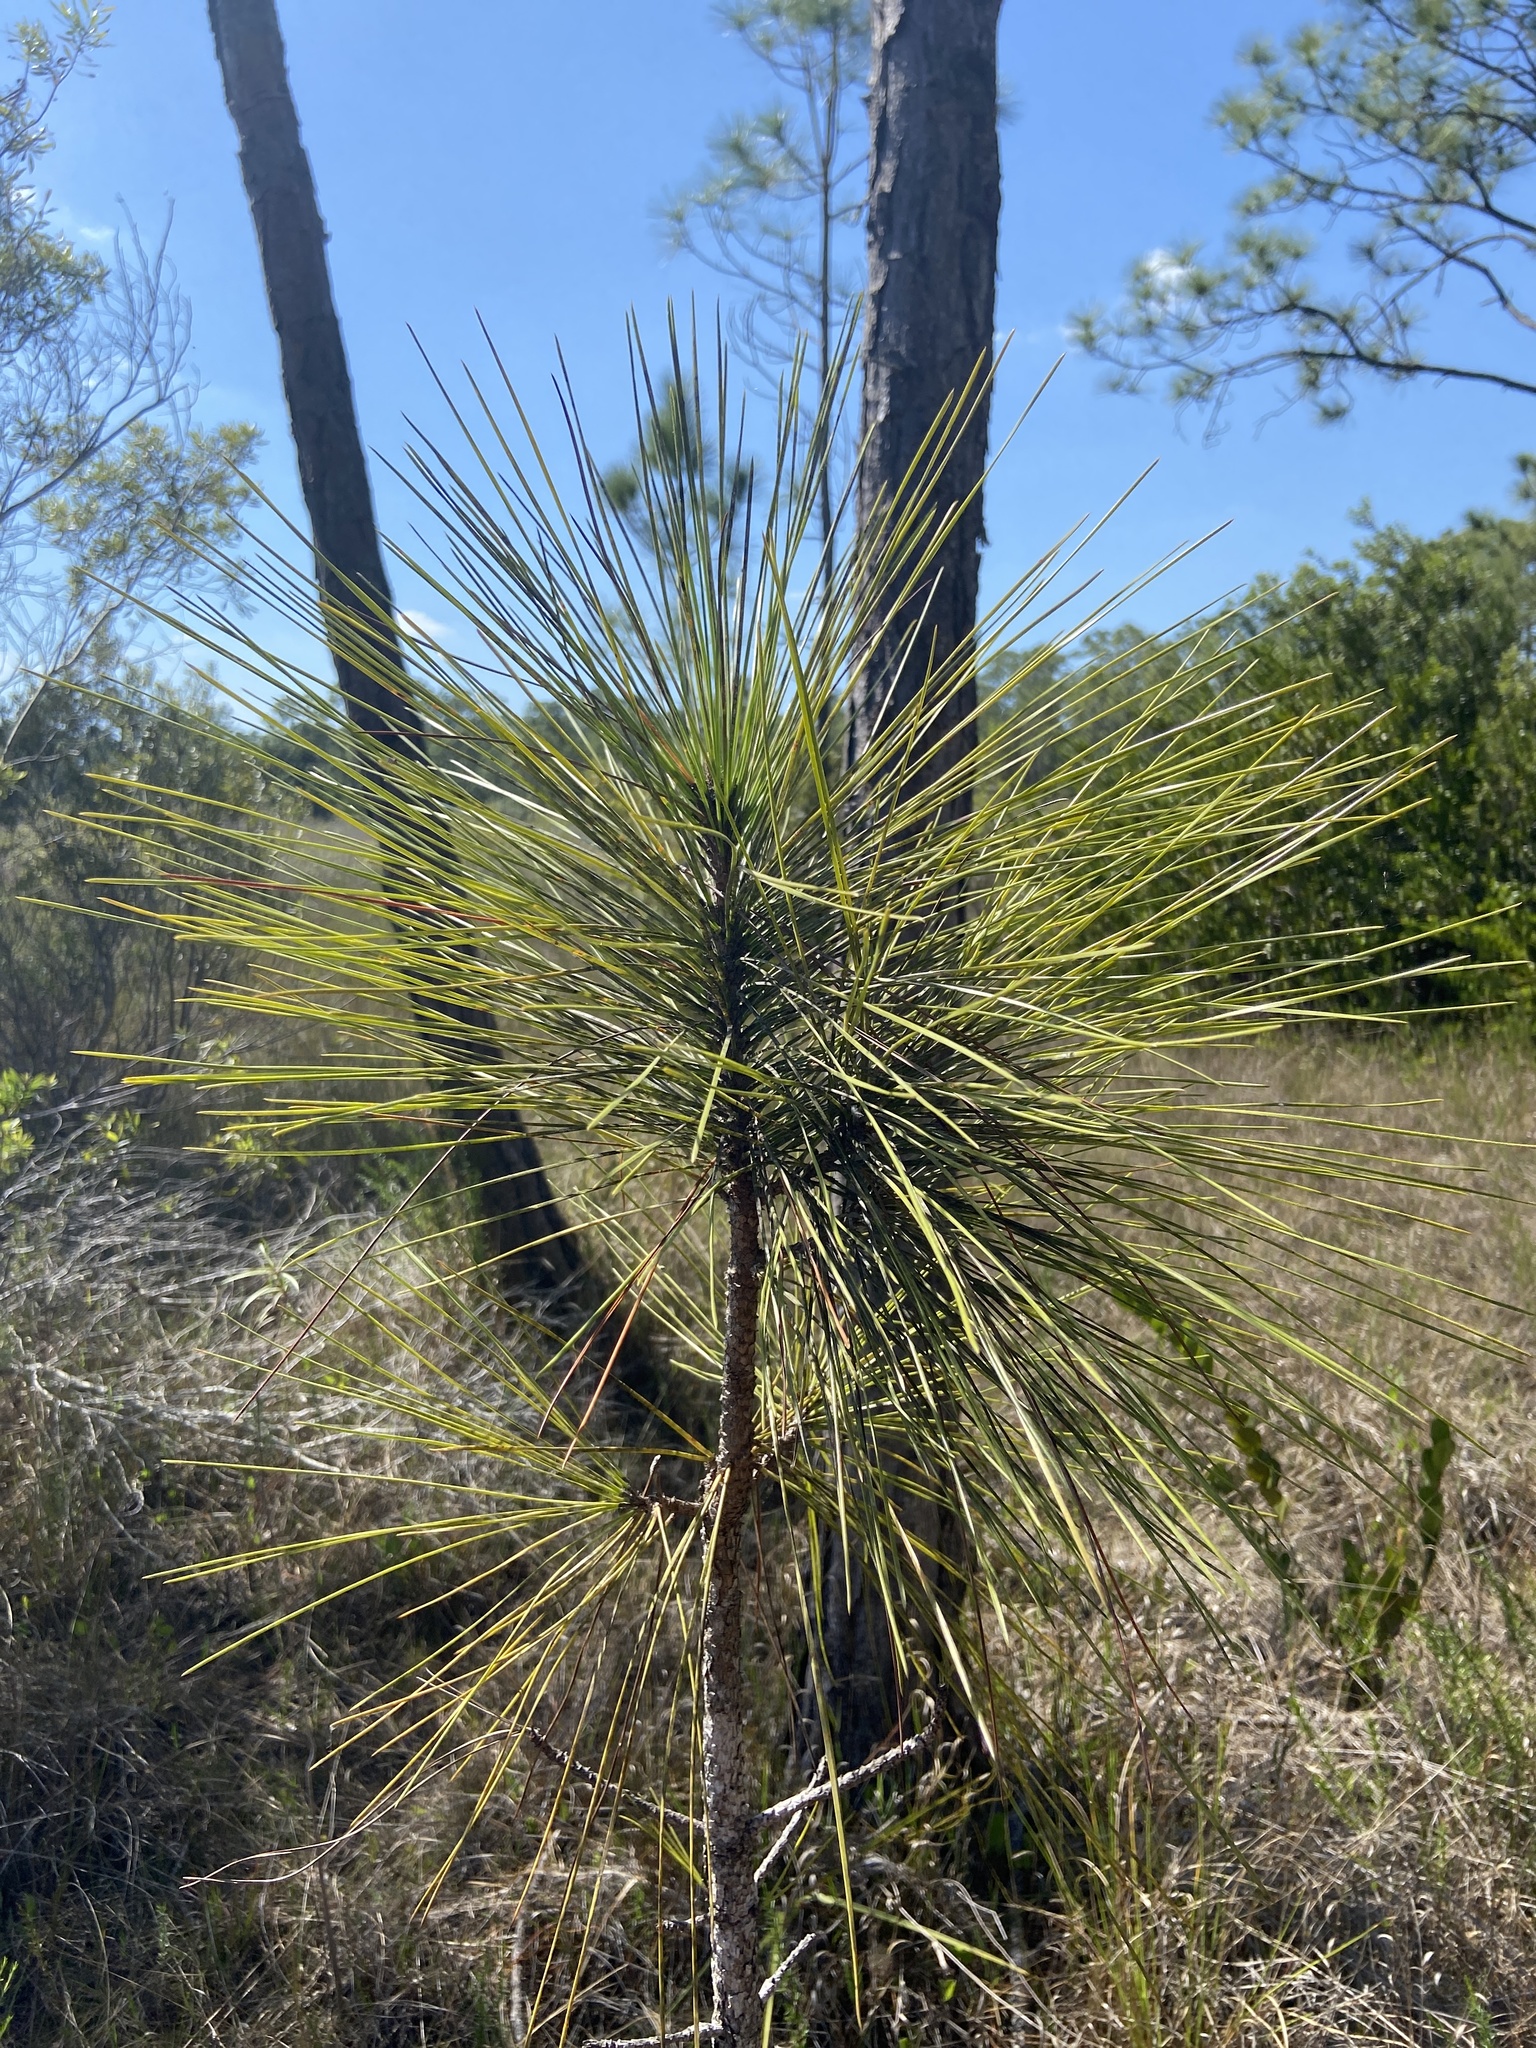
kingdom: Plantae
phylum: Tracheophyta
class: Pinopsida
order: Pinales
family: Pinaceae
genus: Pinus
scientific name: Pinus elliottii
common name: Slash pine
